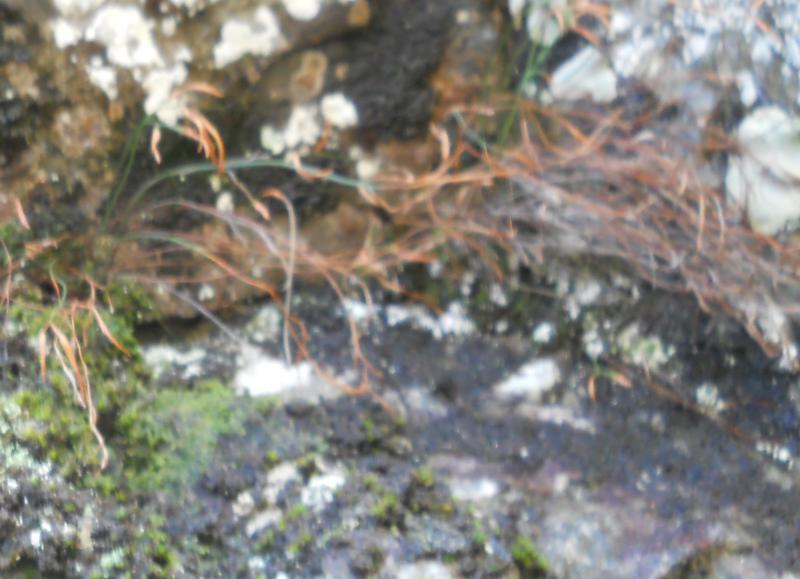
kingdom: Plantae
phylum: Tracheophyta
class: Polypodiopsida
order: Polypodiales
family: Aspleniaceae
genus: Asplenium
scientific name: Asplenium septentrionale
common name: Forked spleenwort
